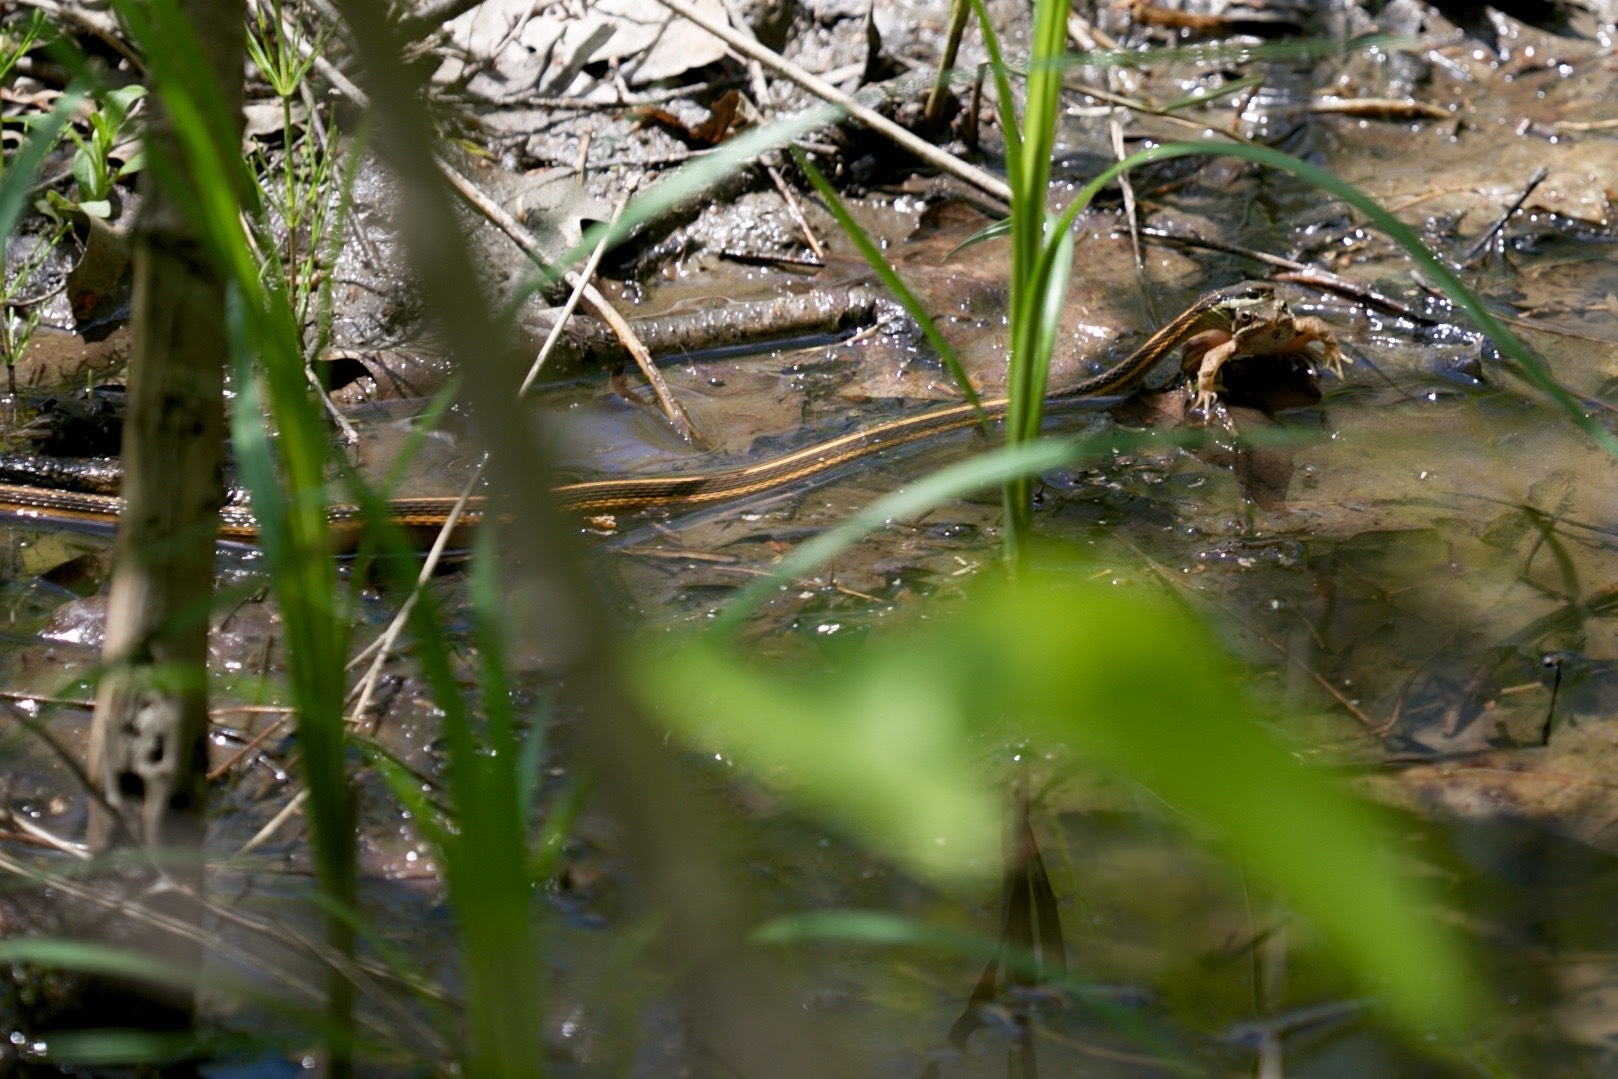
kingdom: Animalia
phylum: Chordata
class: Squamata
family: Colubridae
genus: Thamnophis
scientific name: Thamnophis saurita
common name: Eastern ribbonsnake
